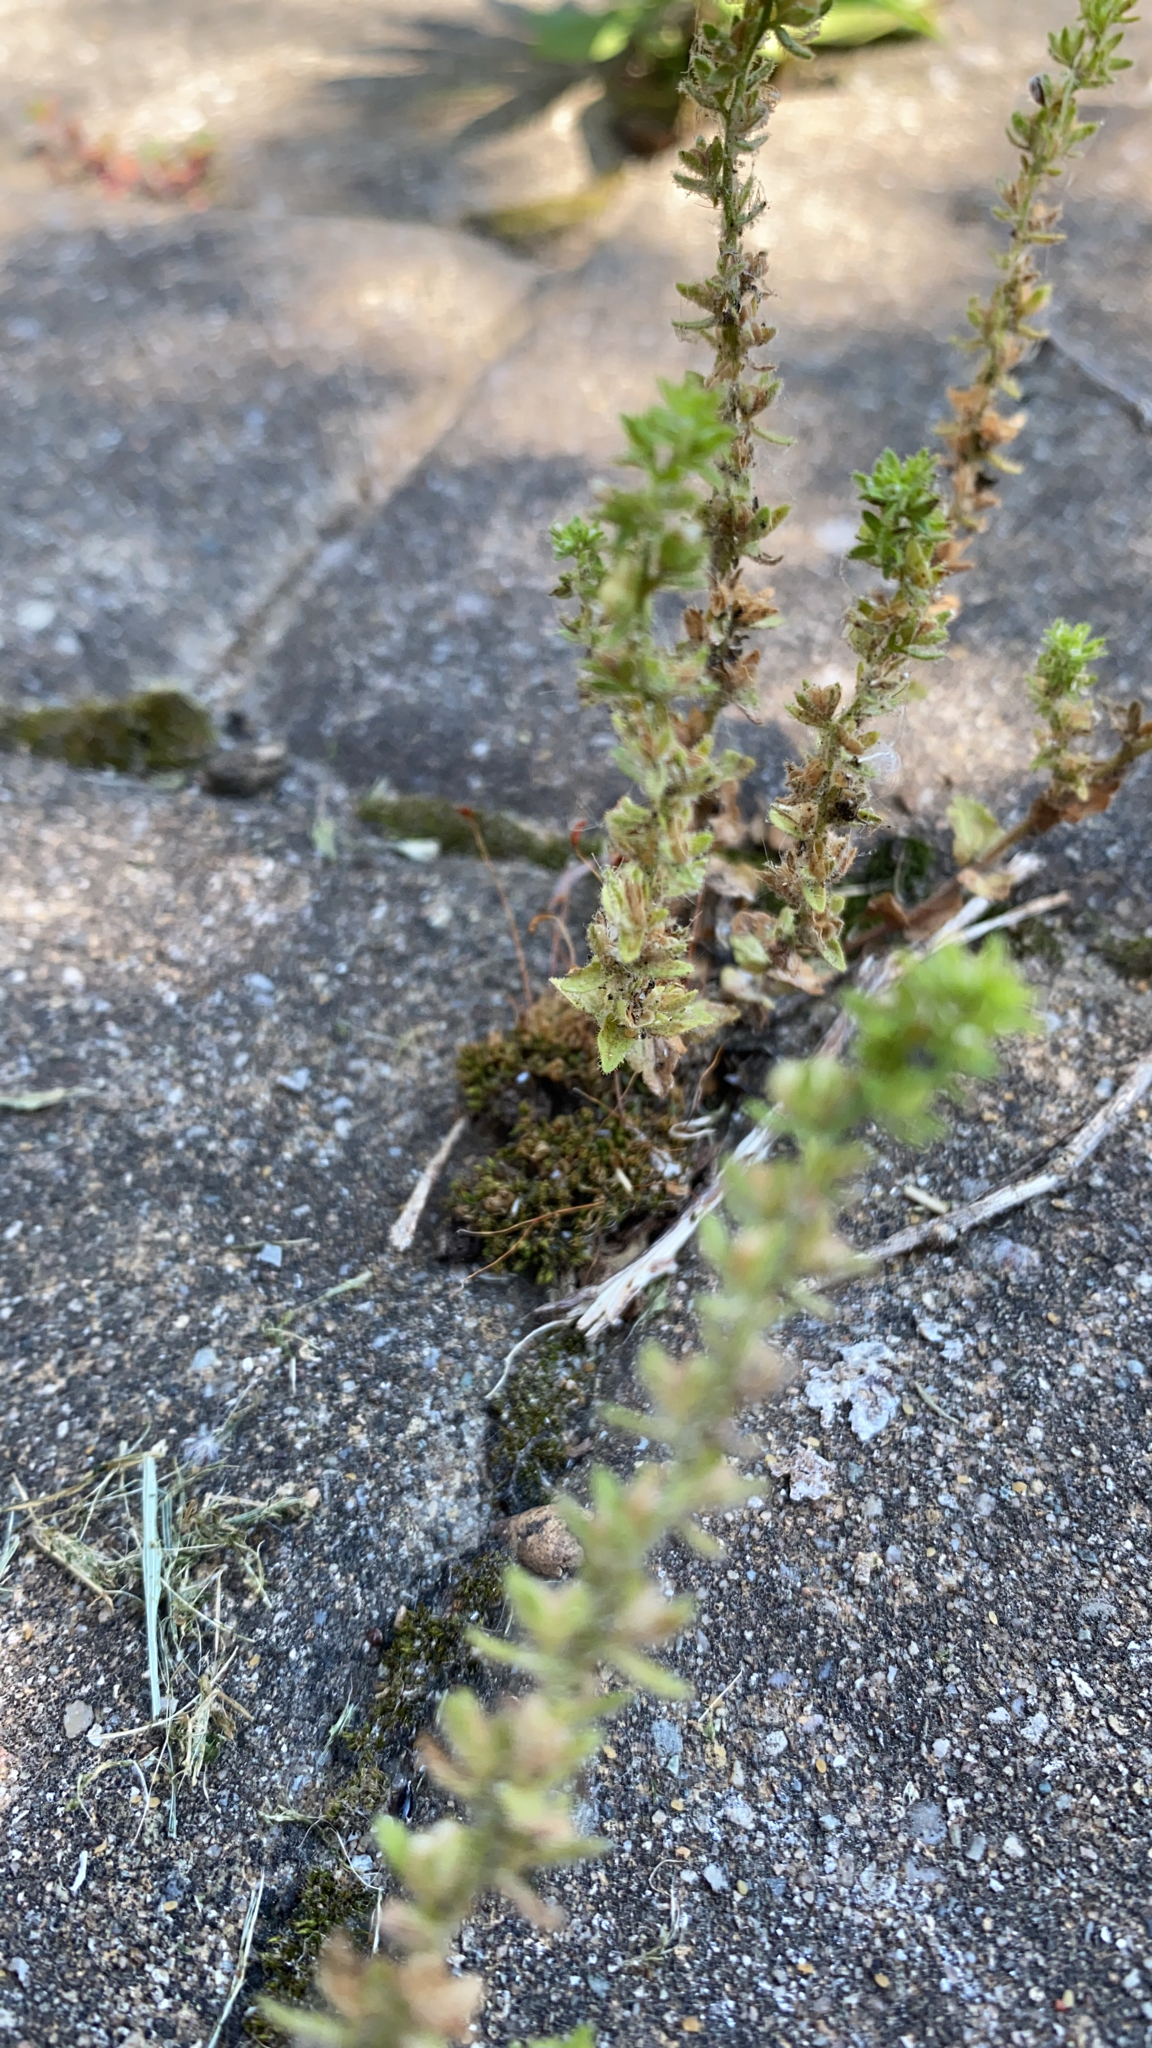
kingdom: Plantae
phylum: Tracheophyta
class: Magnoliopsida
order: Lamiales
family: Plantaginaceae
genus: Veronica
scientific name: Veronica arvensis
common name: Corn speedwell
